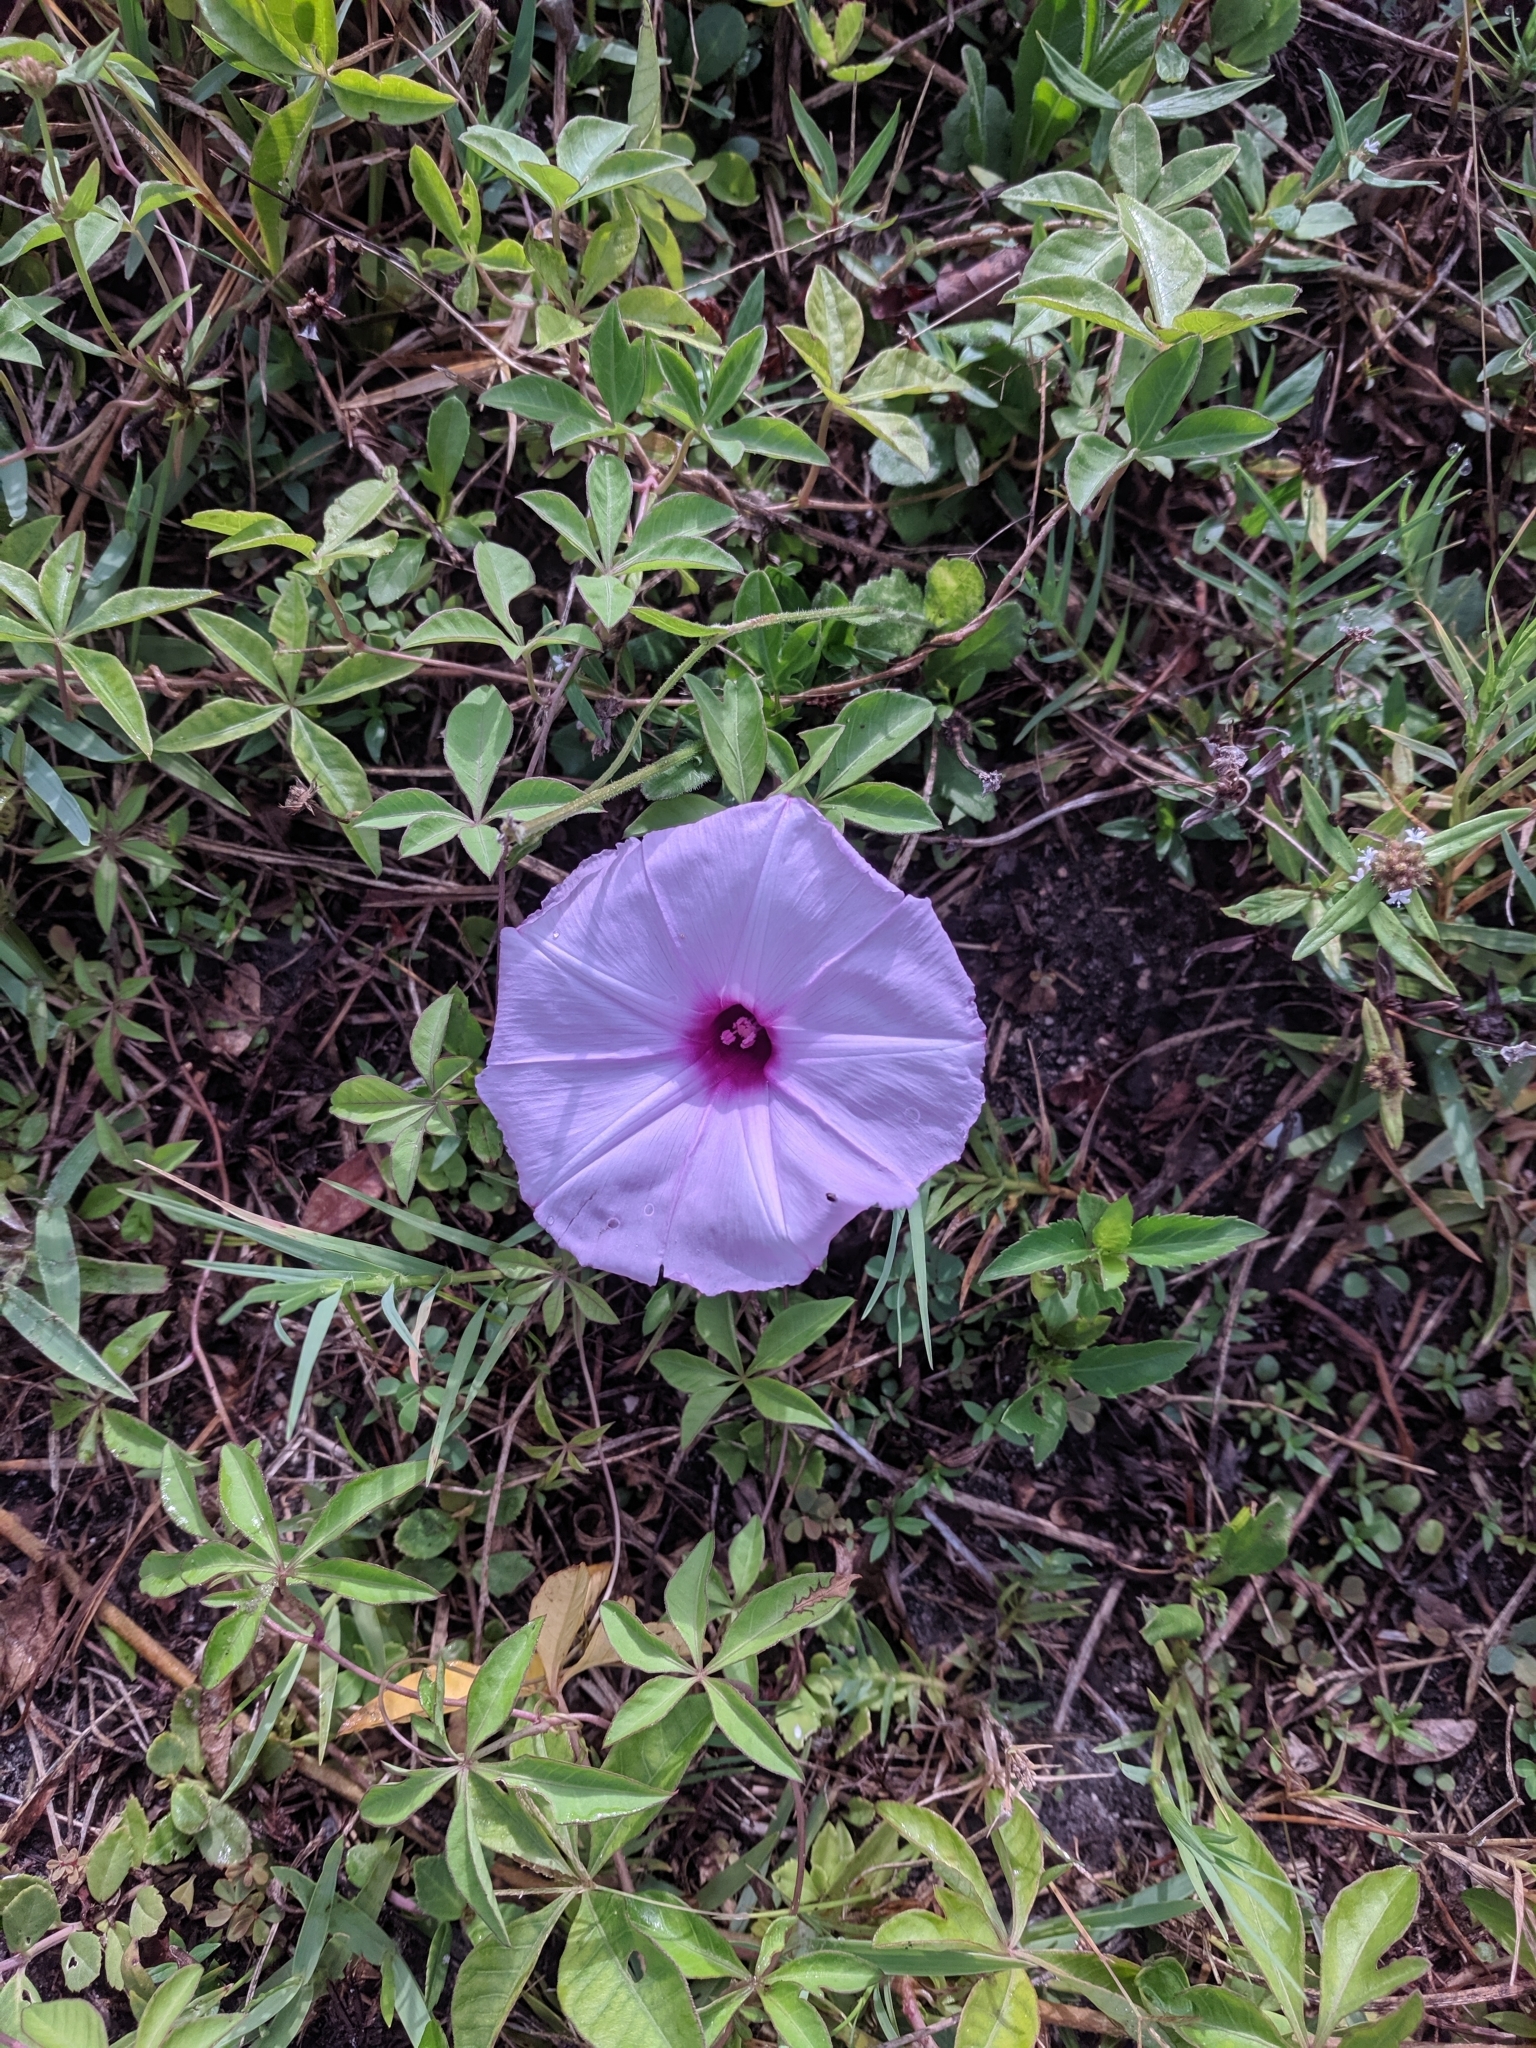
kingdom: Plantae
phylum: Tracheophyta
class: Magnoliopsida
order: Solanales
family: Convolvulaceae
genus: Ipomoea
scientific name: Ipomoea cairica
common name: Mile a minute vine
